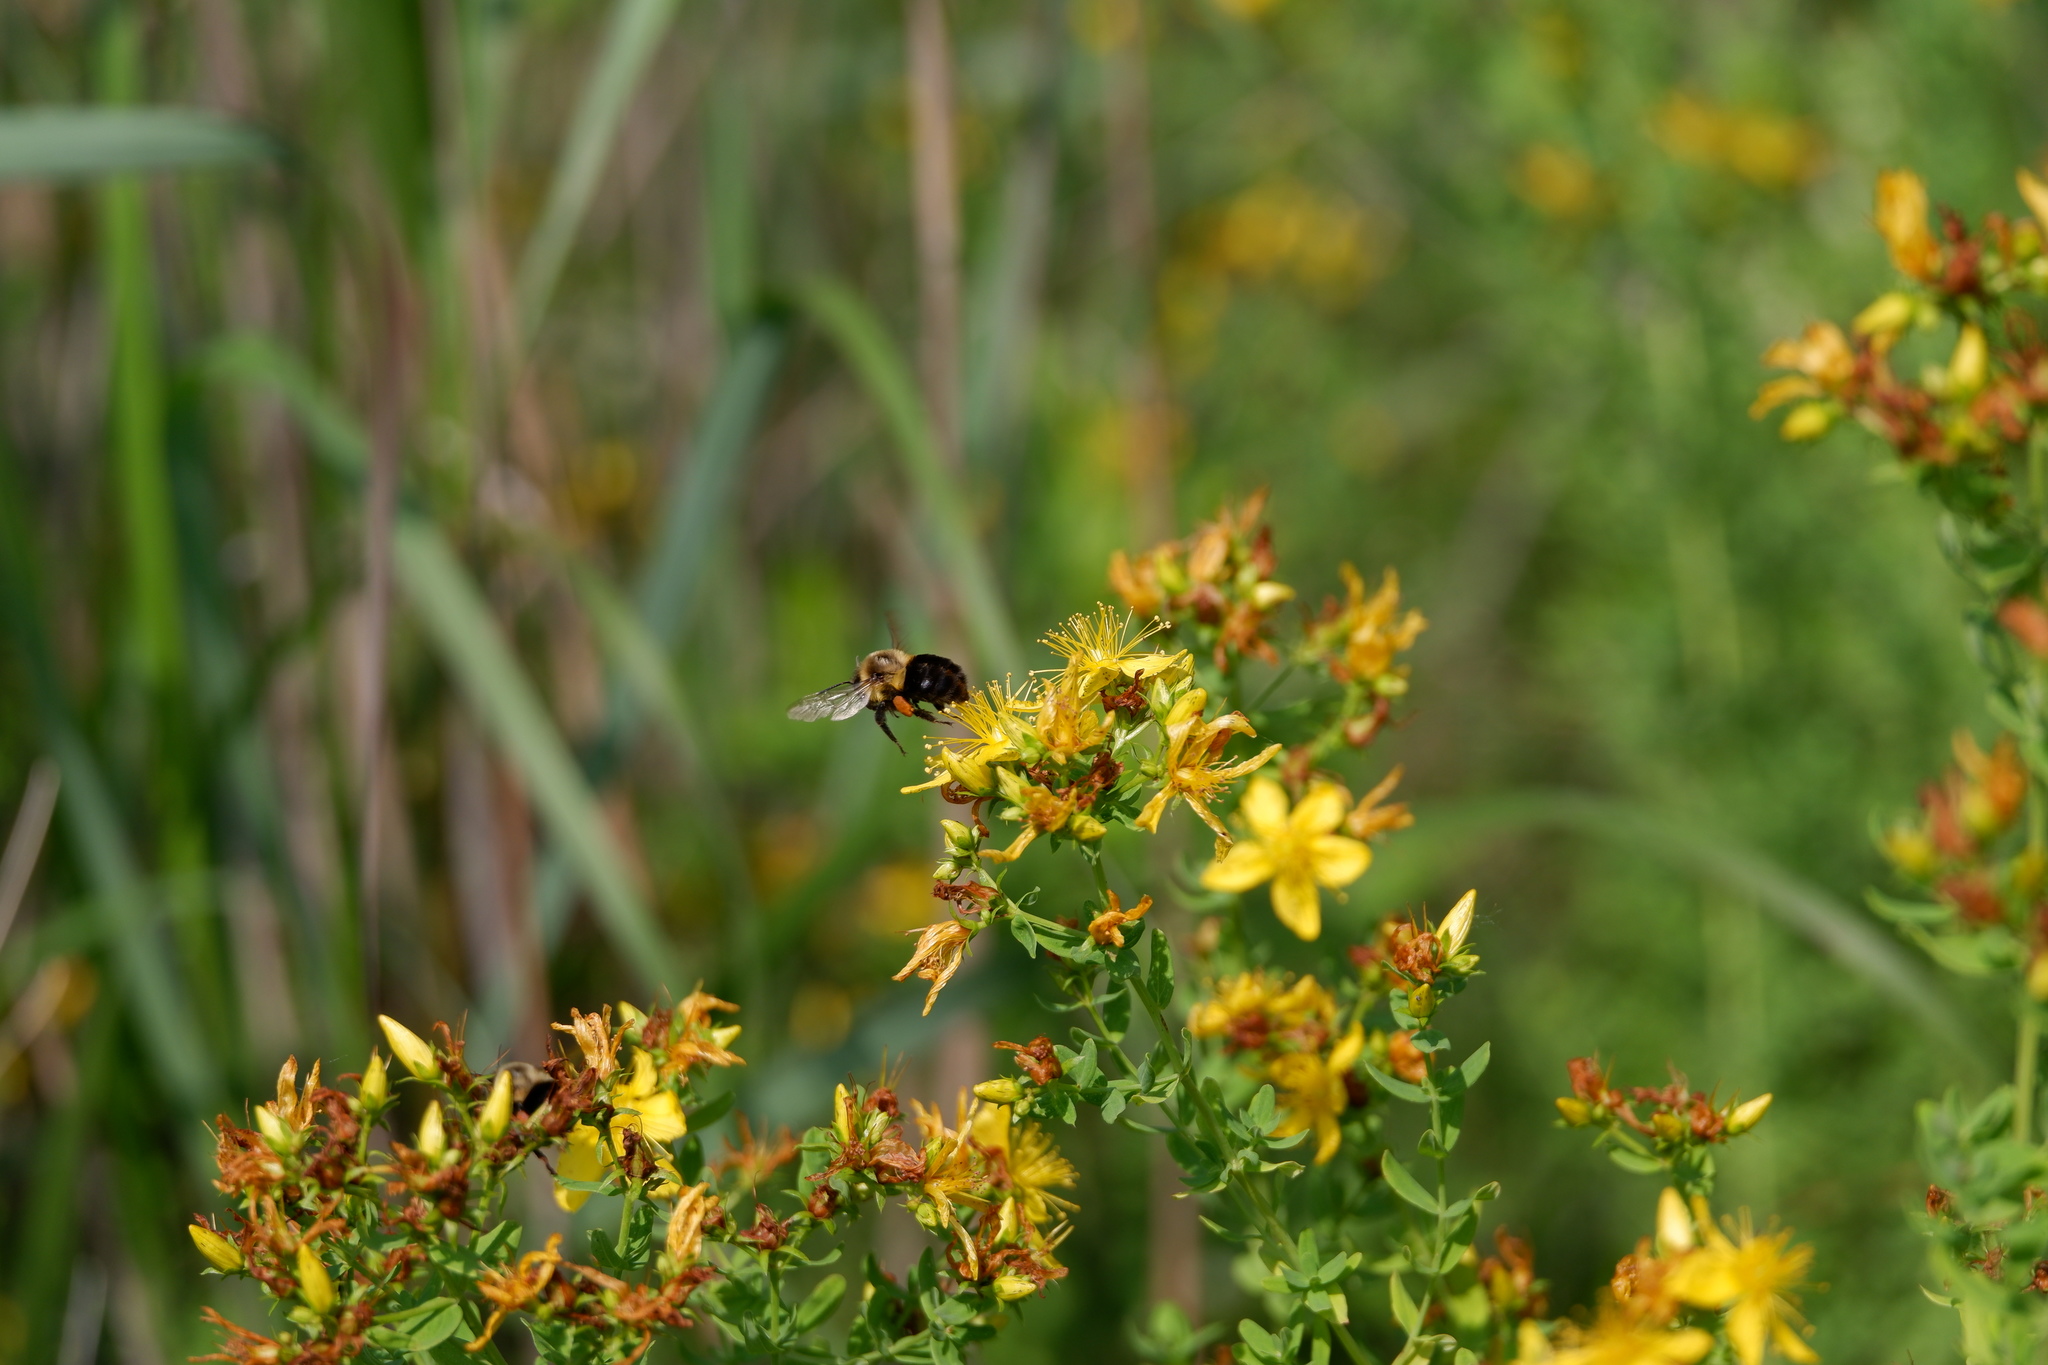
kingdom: Animalia
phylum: Arthropoda
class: Insecta
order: Hymenoptera
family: Apidae
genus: Bombus
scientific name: Bombus impatiens
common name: Common eastern bumble bee
